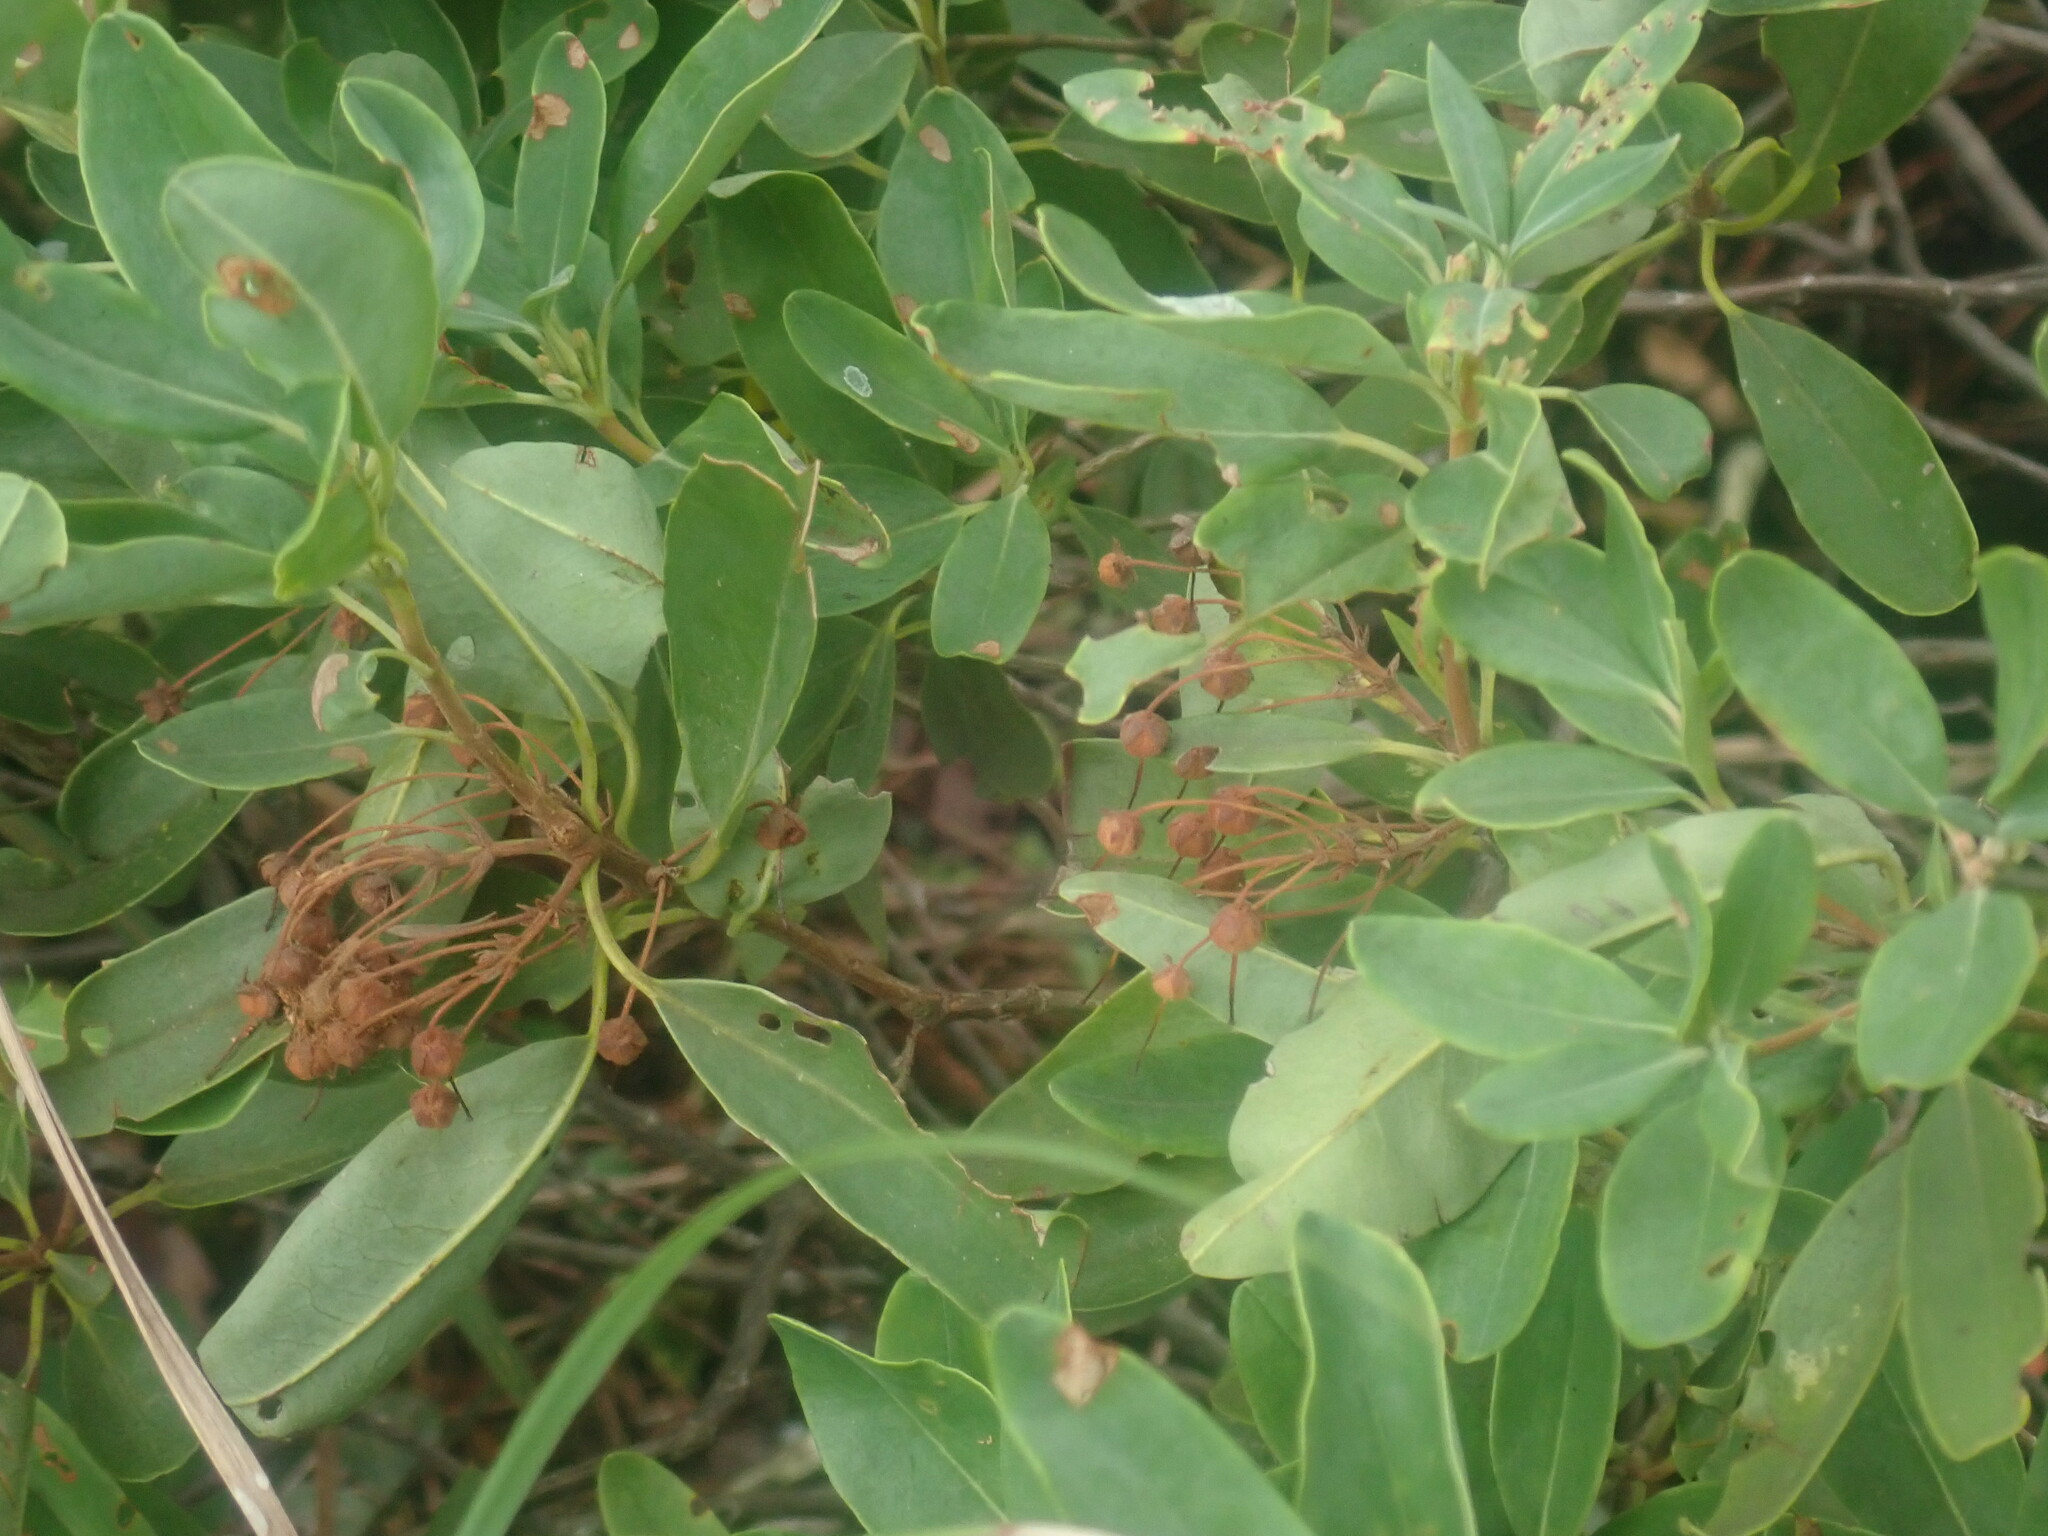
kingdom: Plantae
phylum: Tracheophyta
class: Magnoliopsida
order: Ericales
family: Ericaceae
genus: Kalmia
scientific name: Kalmia angustifolia
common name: Sheep-laurel
